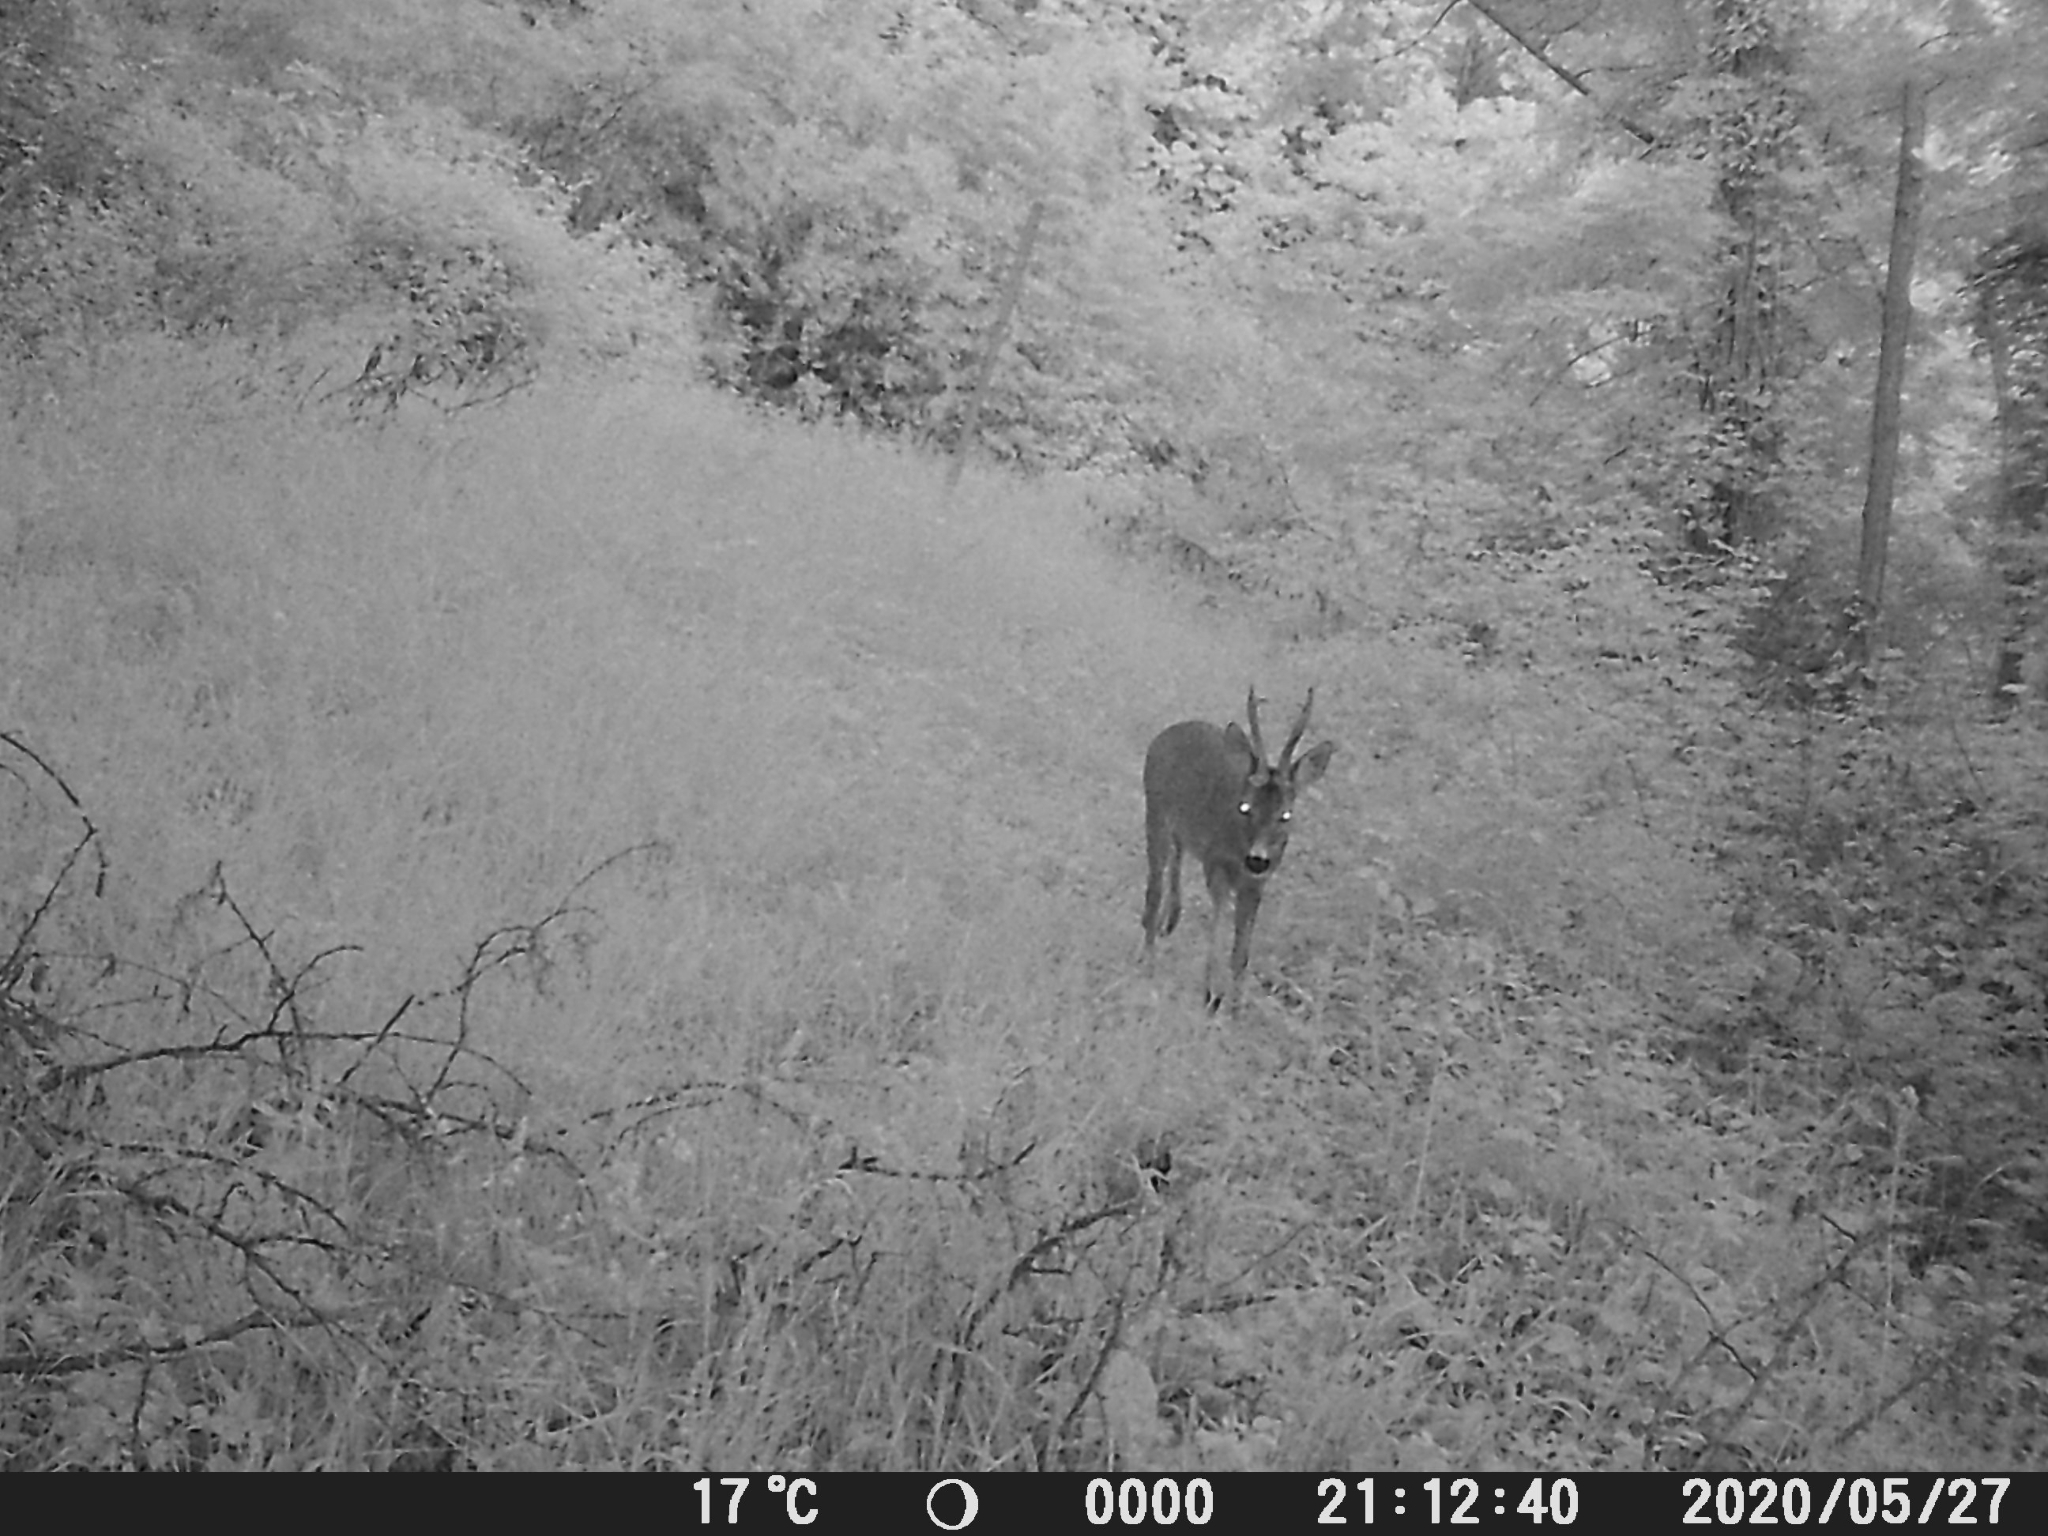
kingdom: Animalia
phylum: Chordata
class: Mammalia
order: Artiodactyla
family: Cervidae
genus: Capreolus
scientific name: Capreolus capreolus
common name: Western roe deer
